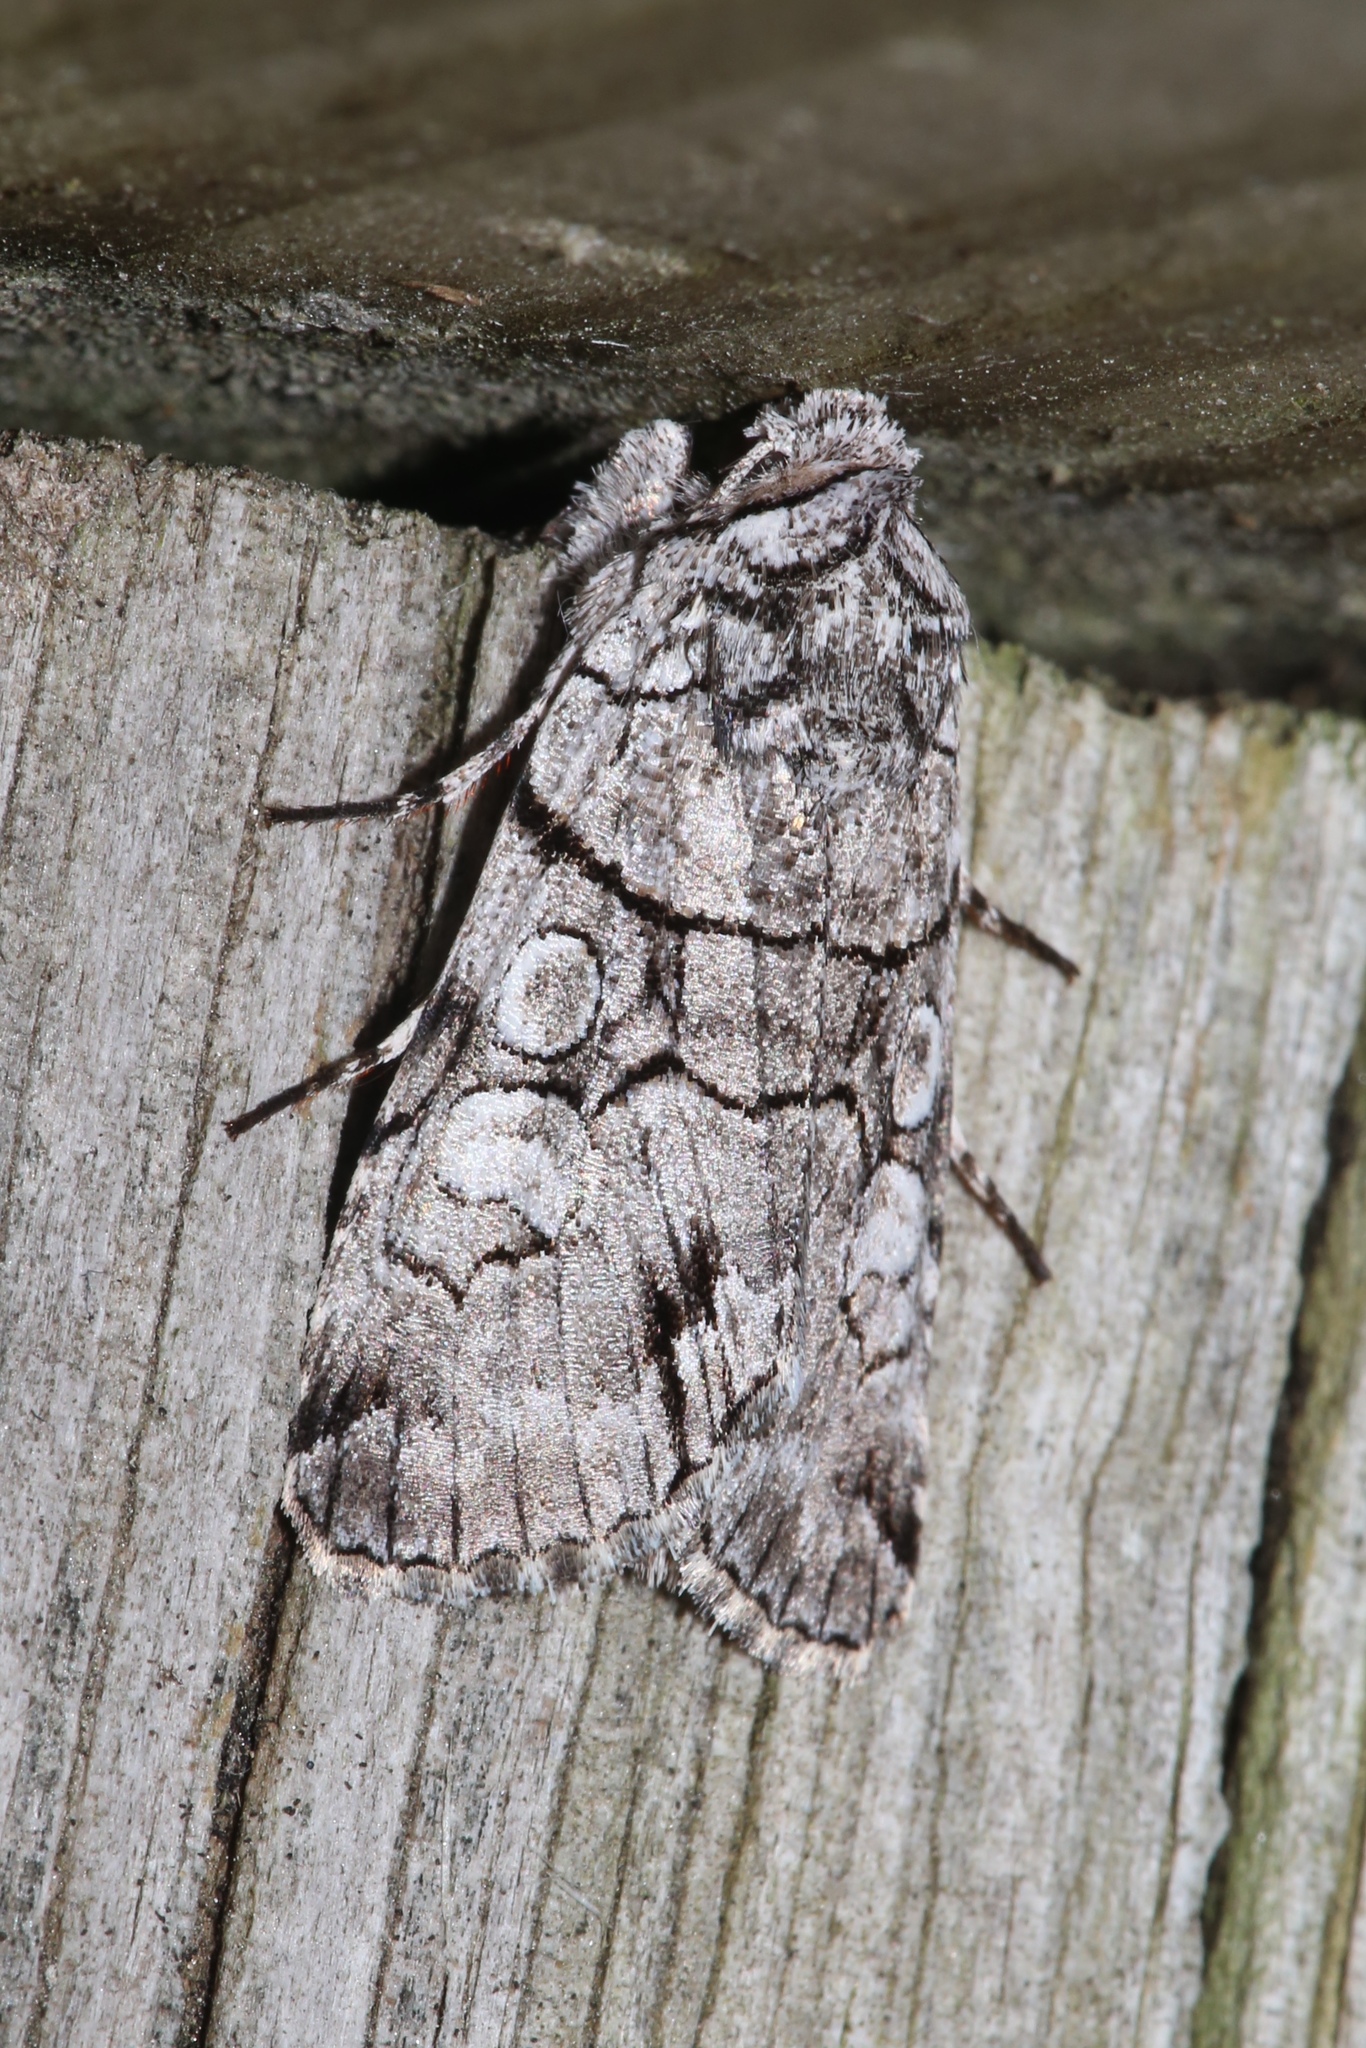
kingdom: Animalia
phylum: Arthropoda
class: Insecta
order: Lepidoptera
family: Noctuidae
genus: Sympistis
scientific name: Sympistis chionanthi
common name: Fringe-tree sallow
